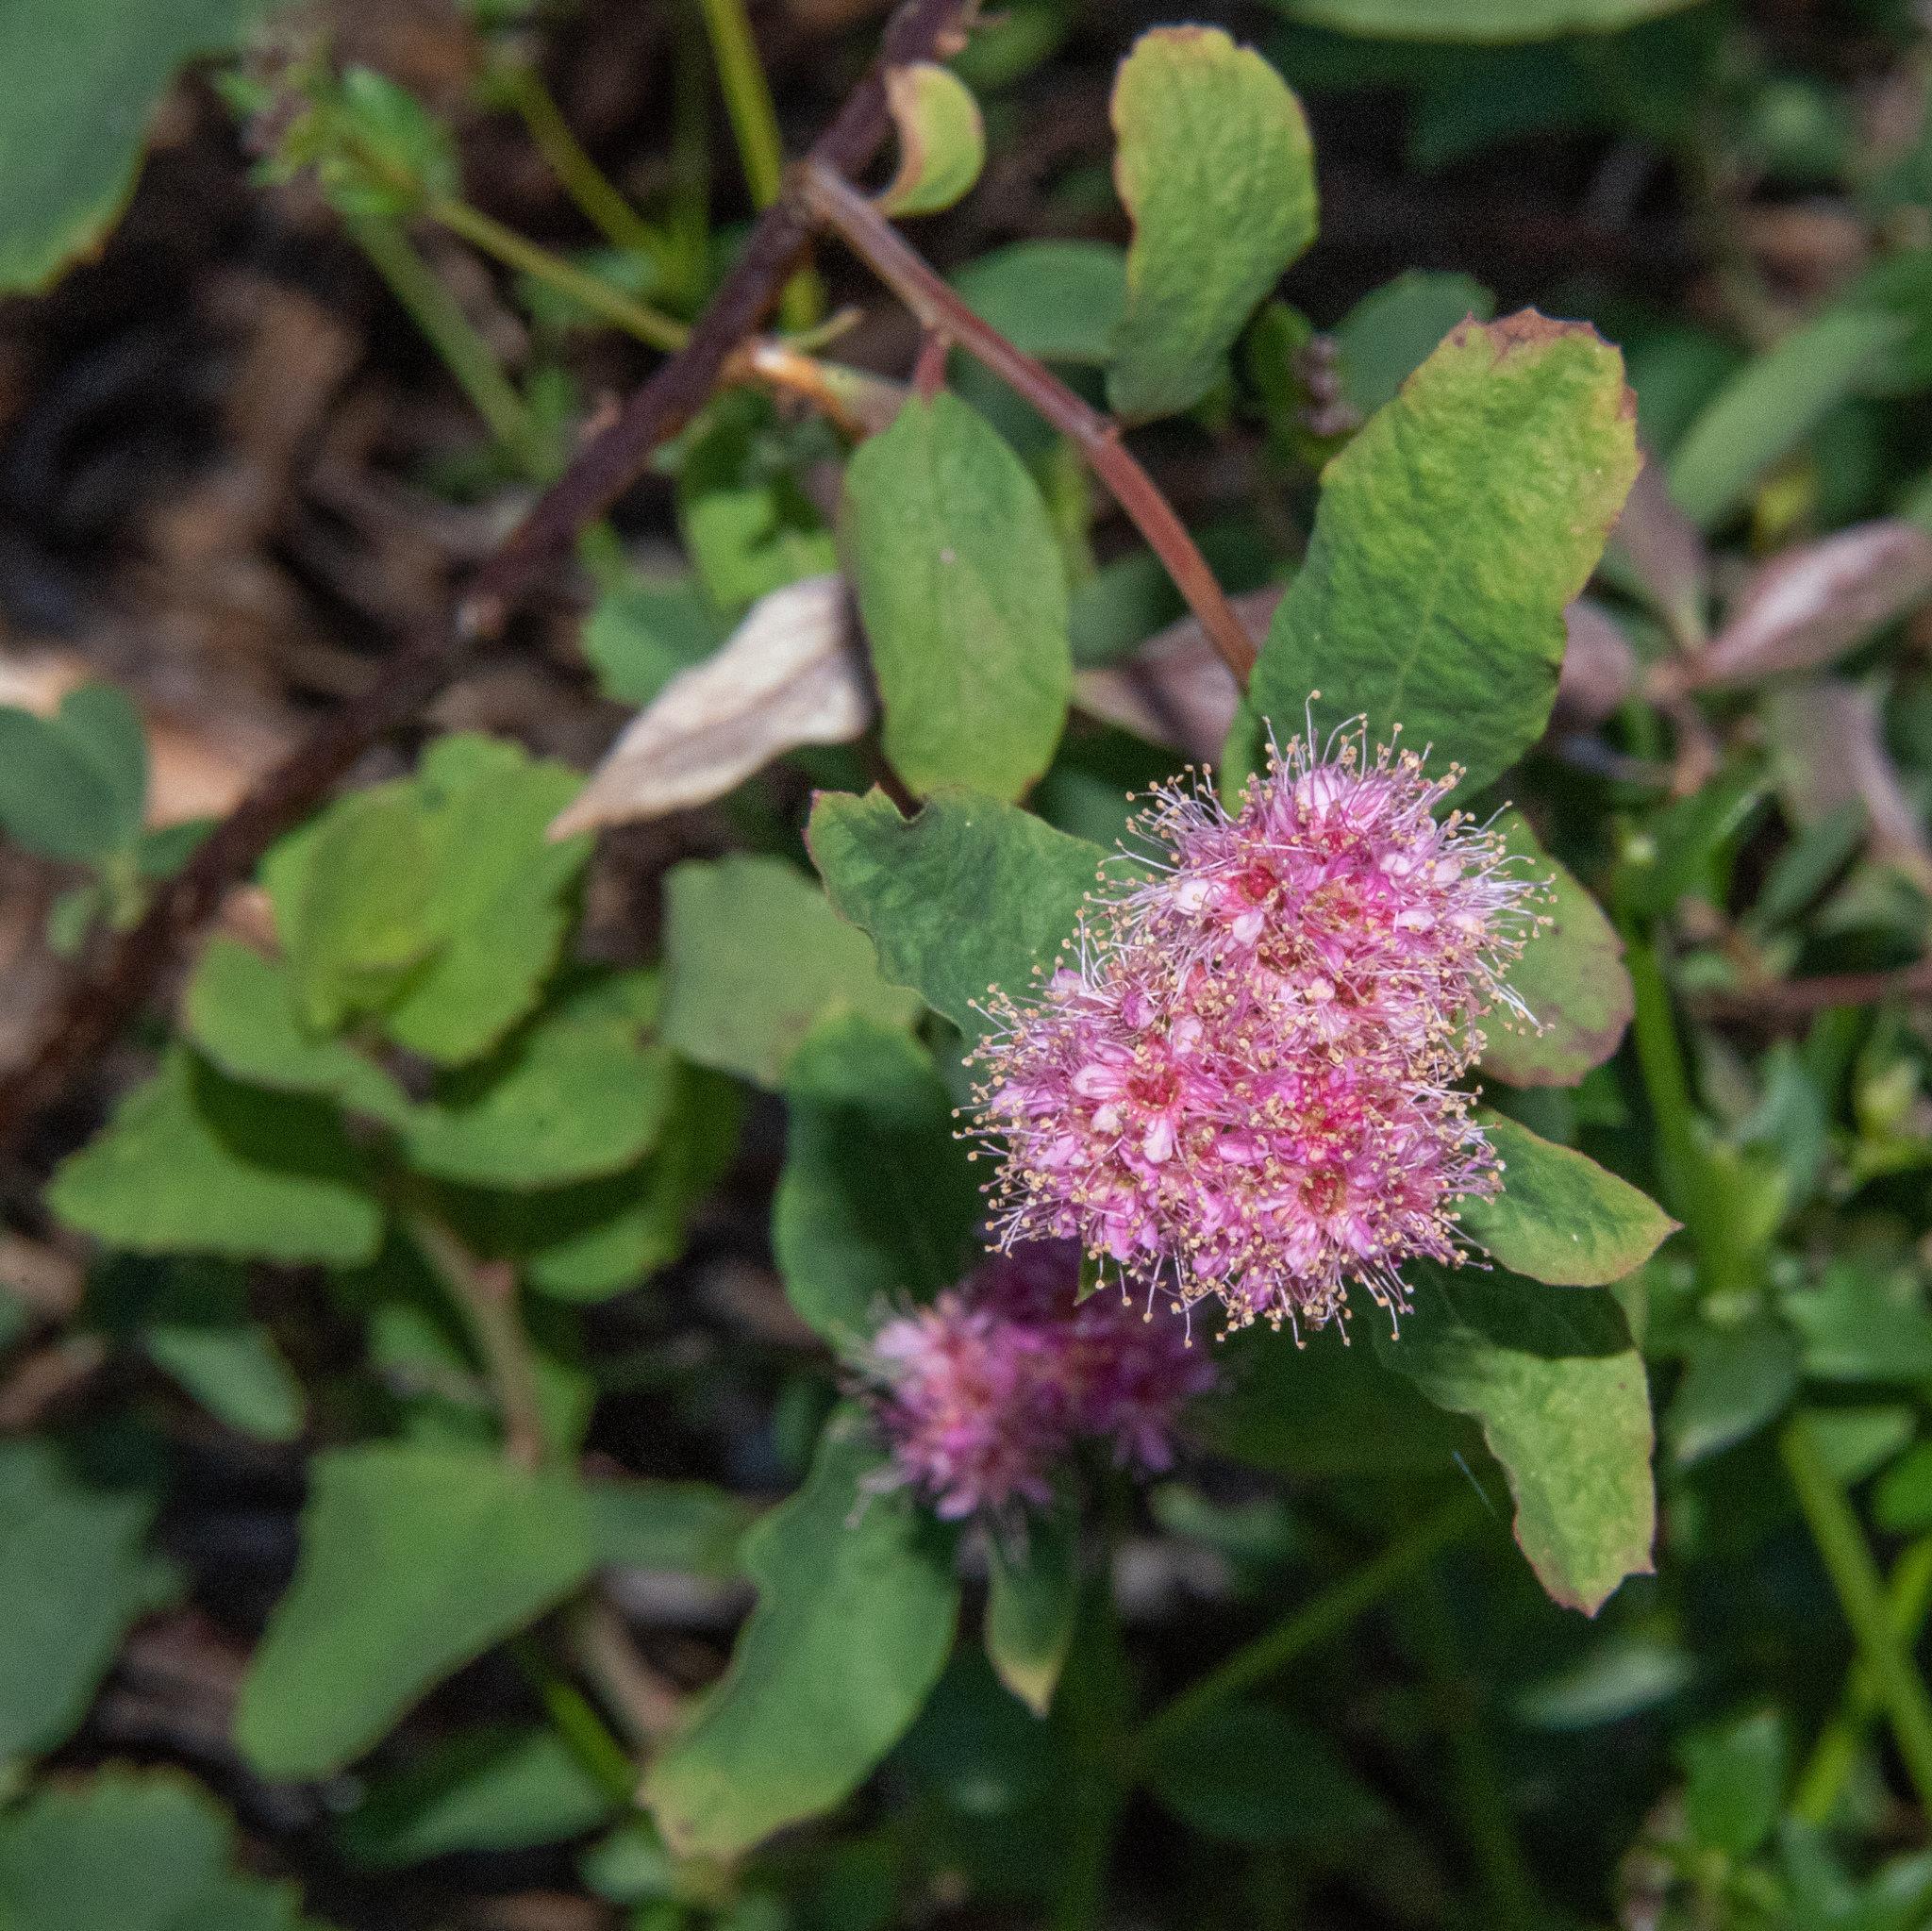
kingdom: Plantae
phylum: Tracheophyta
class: Magnoliopsida
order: Rosales
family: Rosaceae
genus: Spiraea
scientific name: Spiraea splendens
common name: Subalpine meadowsweet
